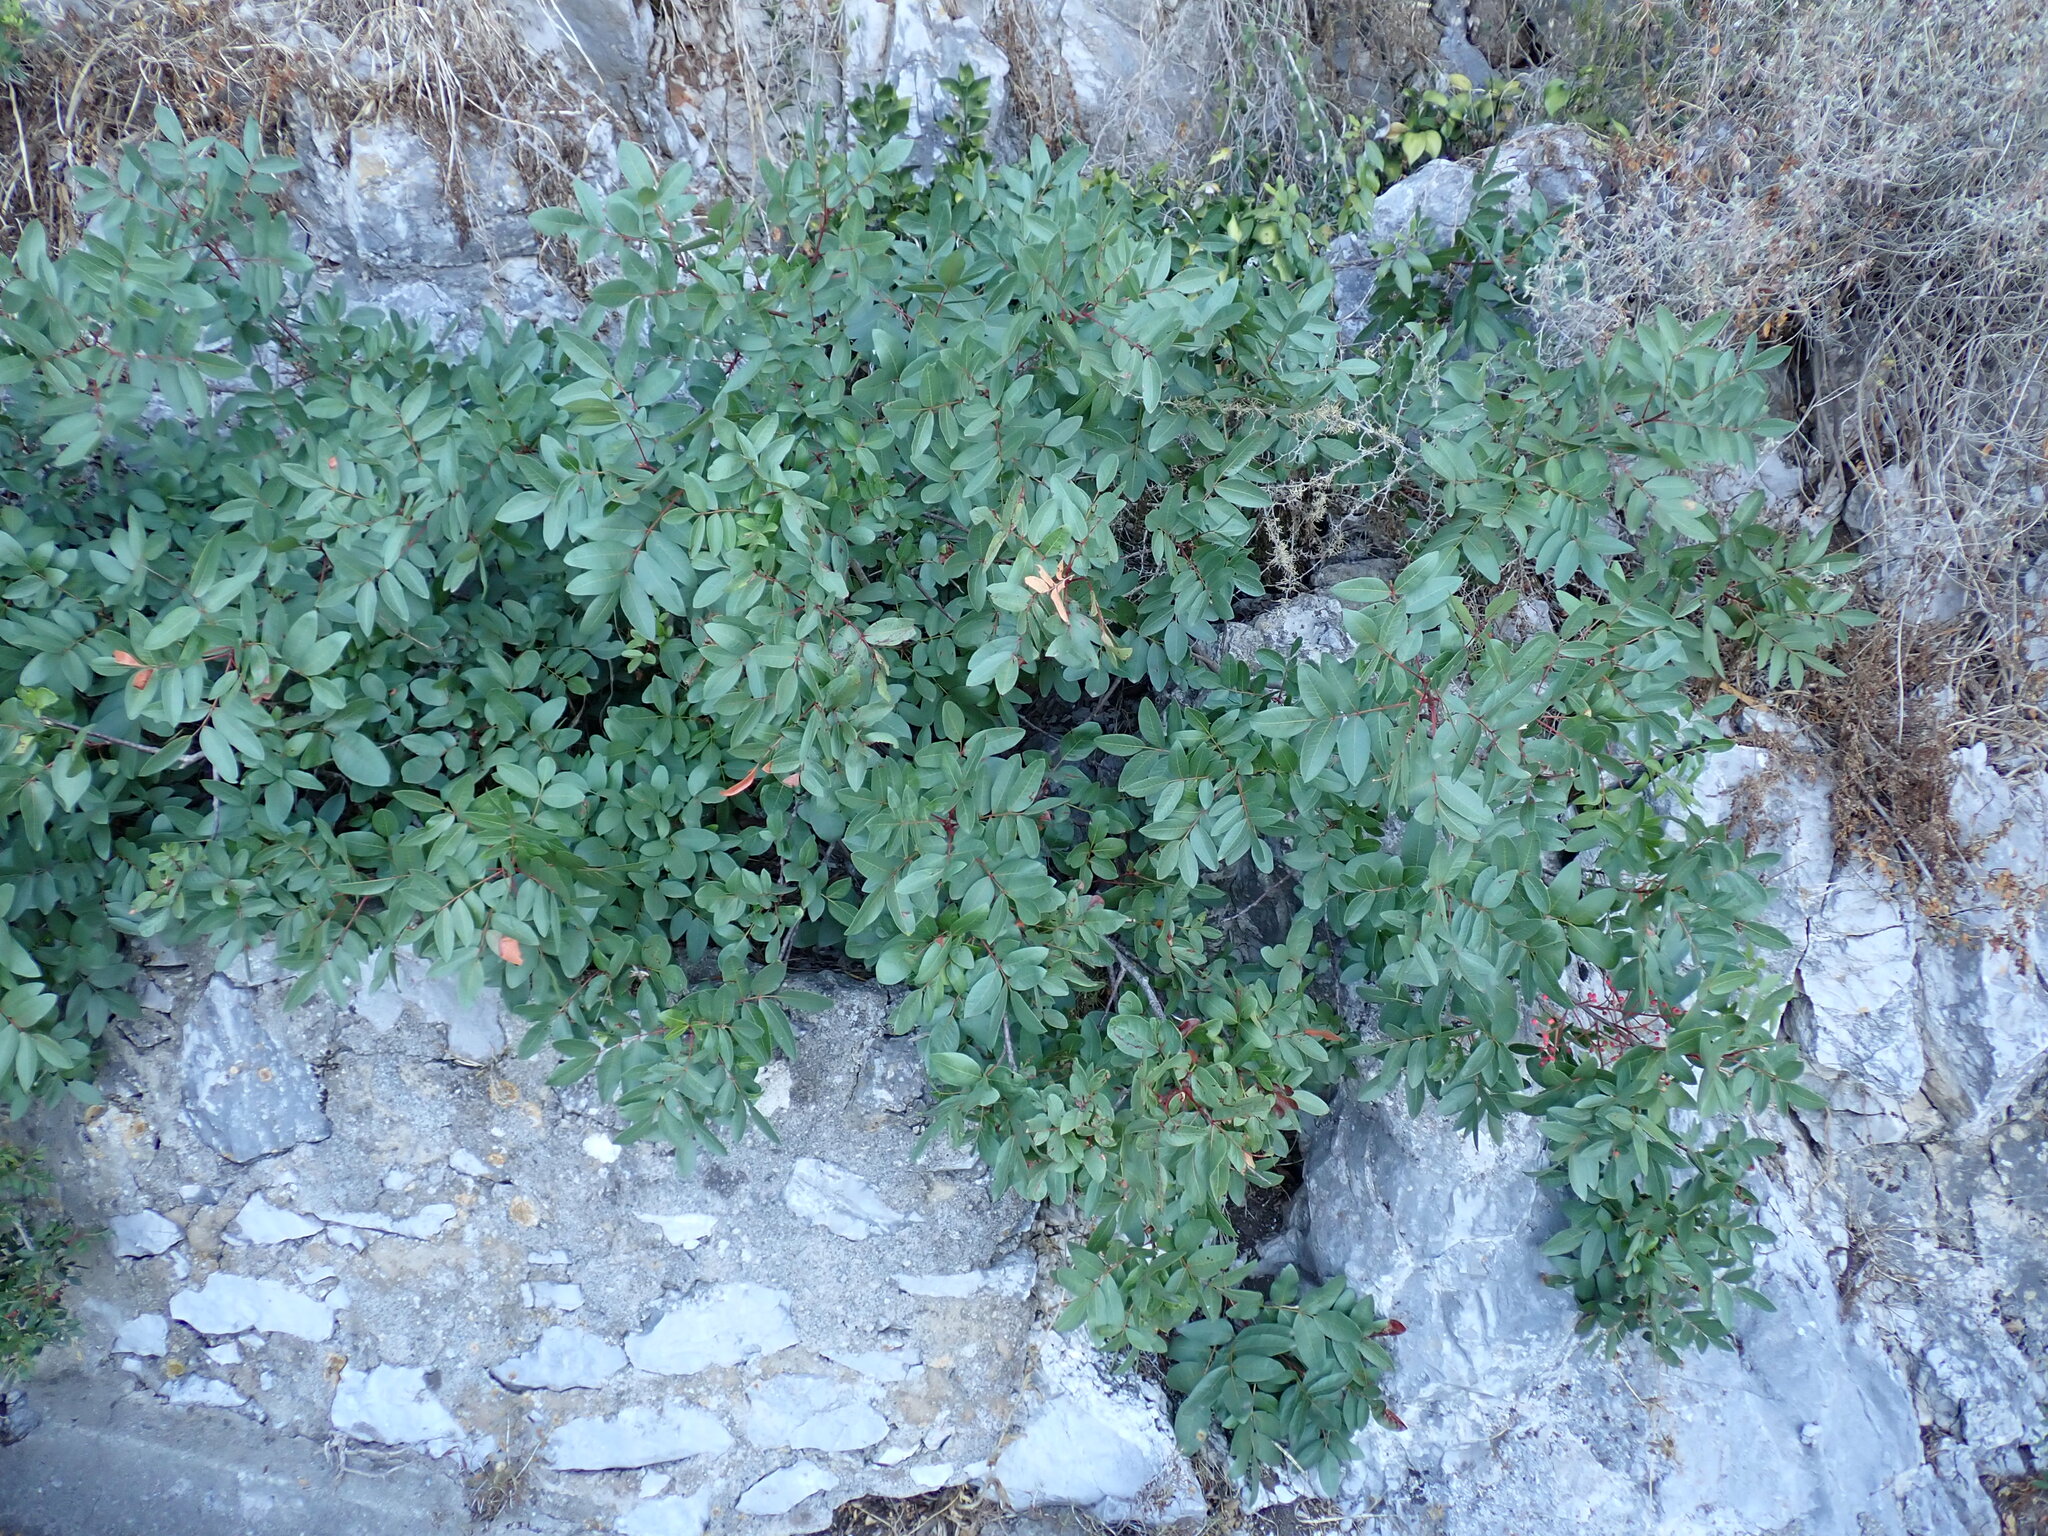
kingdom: Plantae
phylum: Tracheophyta
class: Magnoliopsida
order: Sapindales
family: Anacardiaceae
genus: Pistacia
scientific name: Pistacia terebinthus
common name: Terebinth
